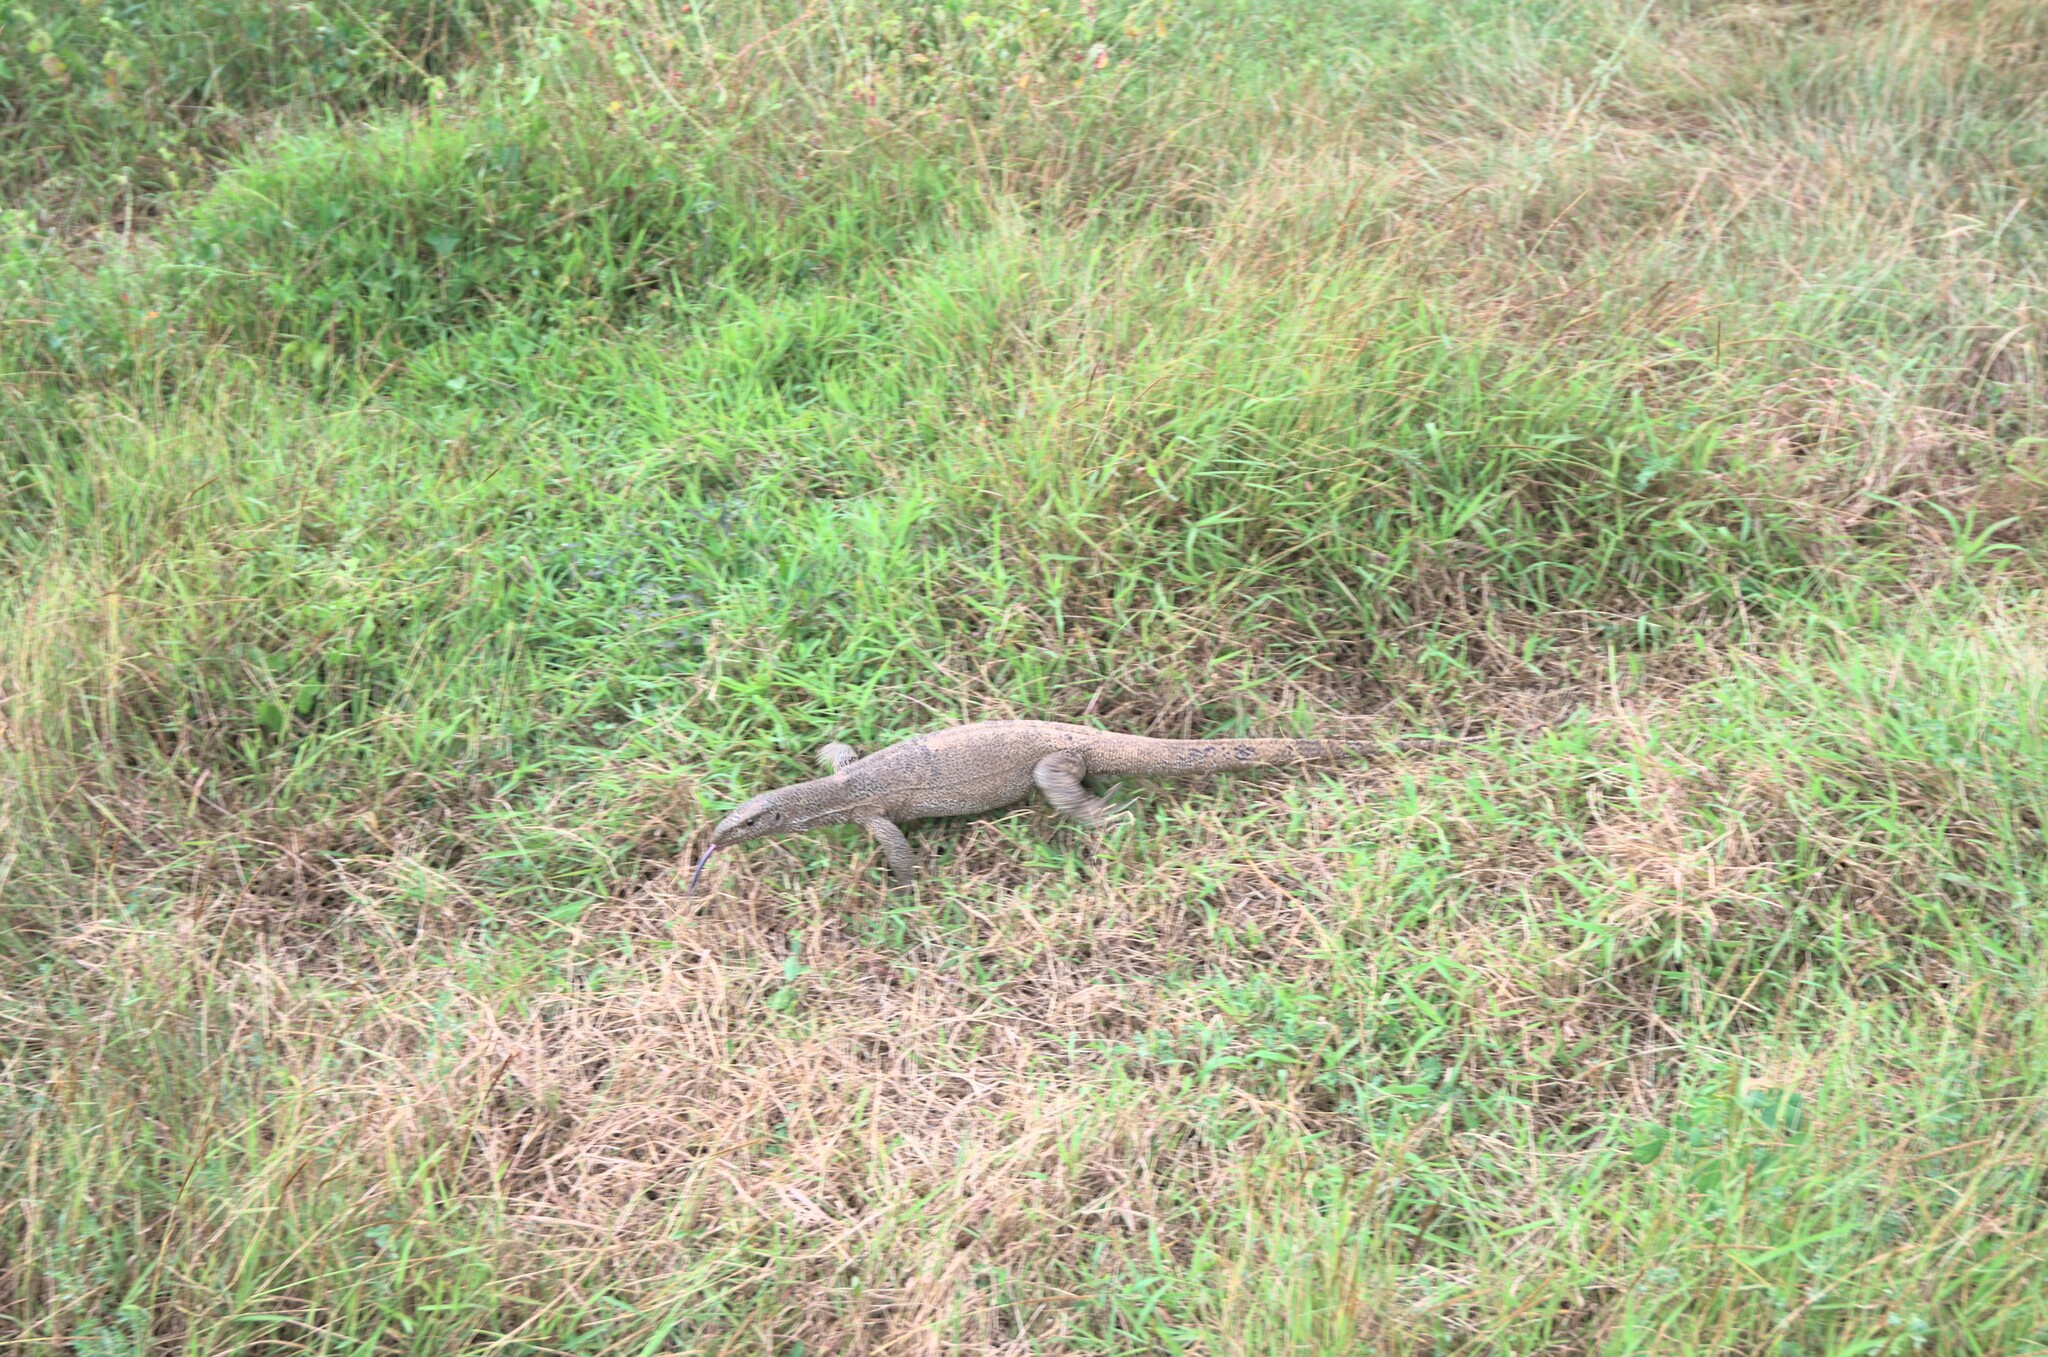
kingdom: Animalia
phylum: Chordata
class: Squamata
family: Varanidae
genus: Varanus
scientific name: Varanus bengalensis
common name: Bengal monitor
